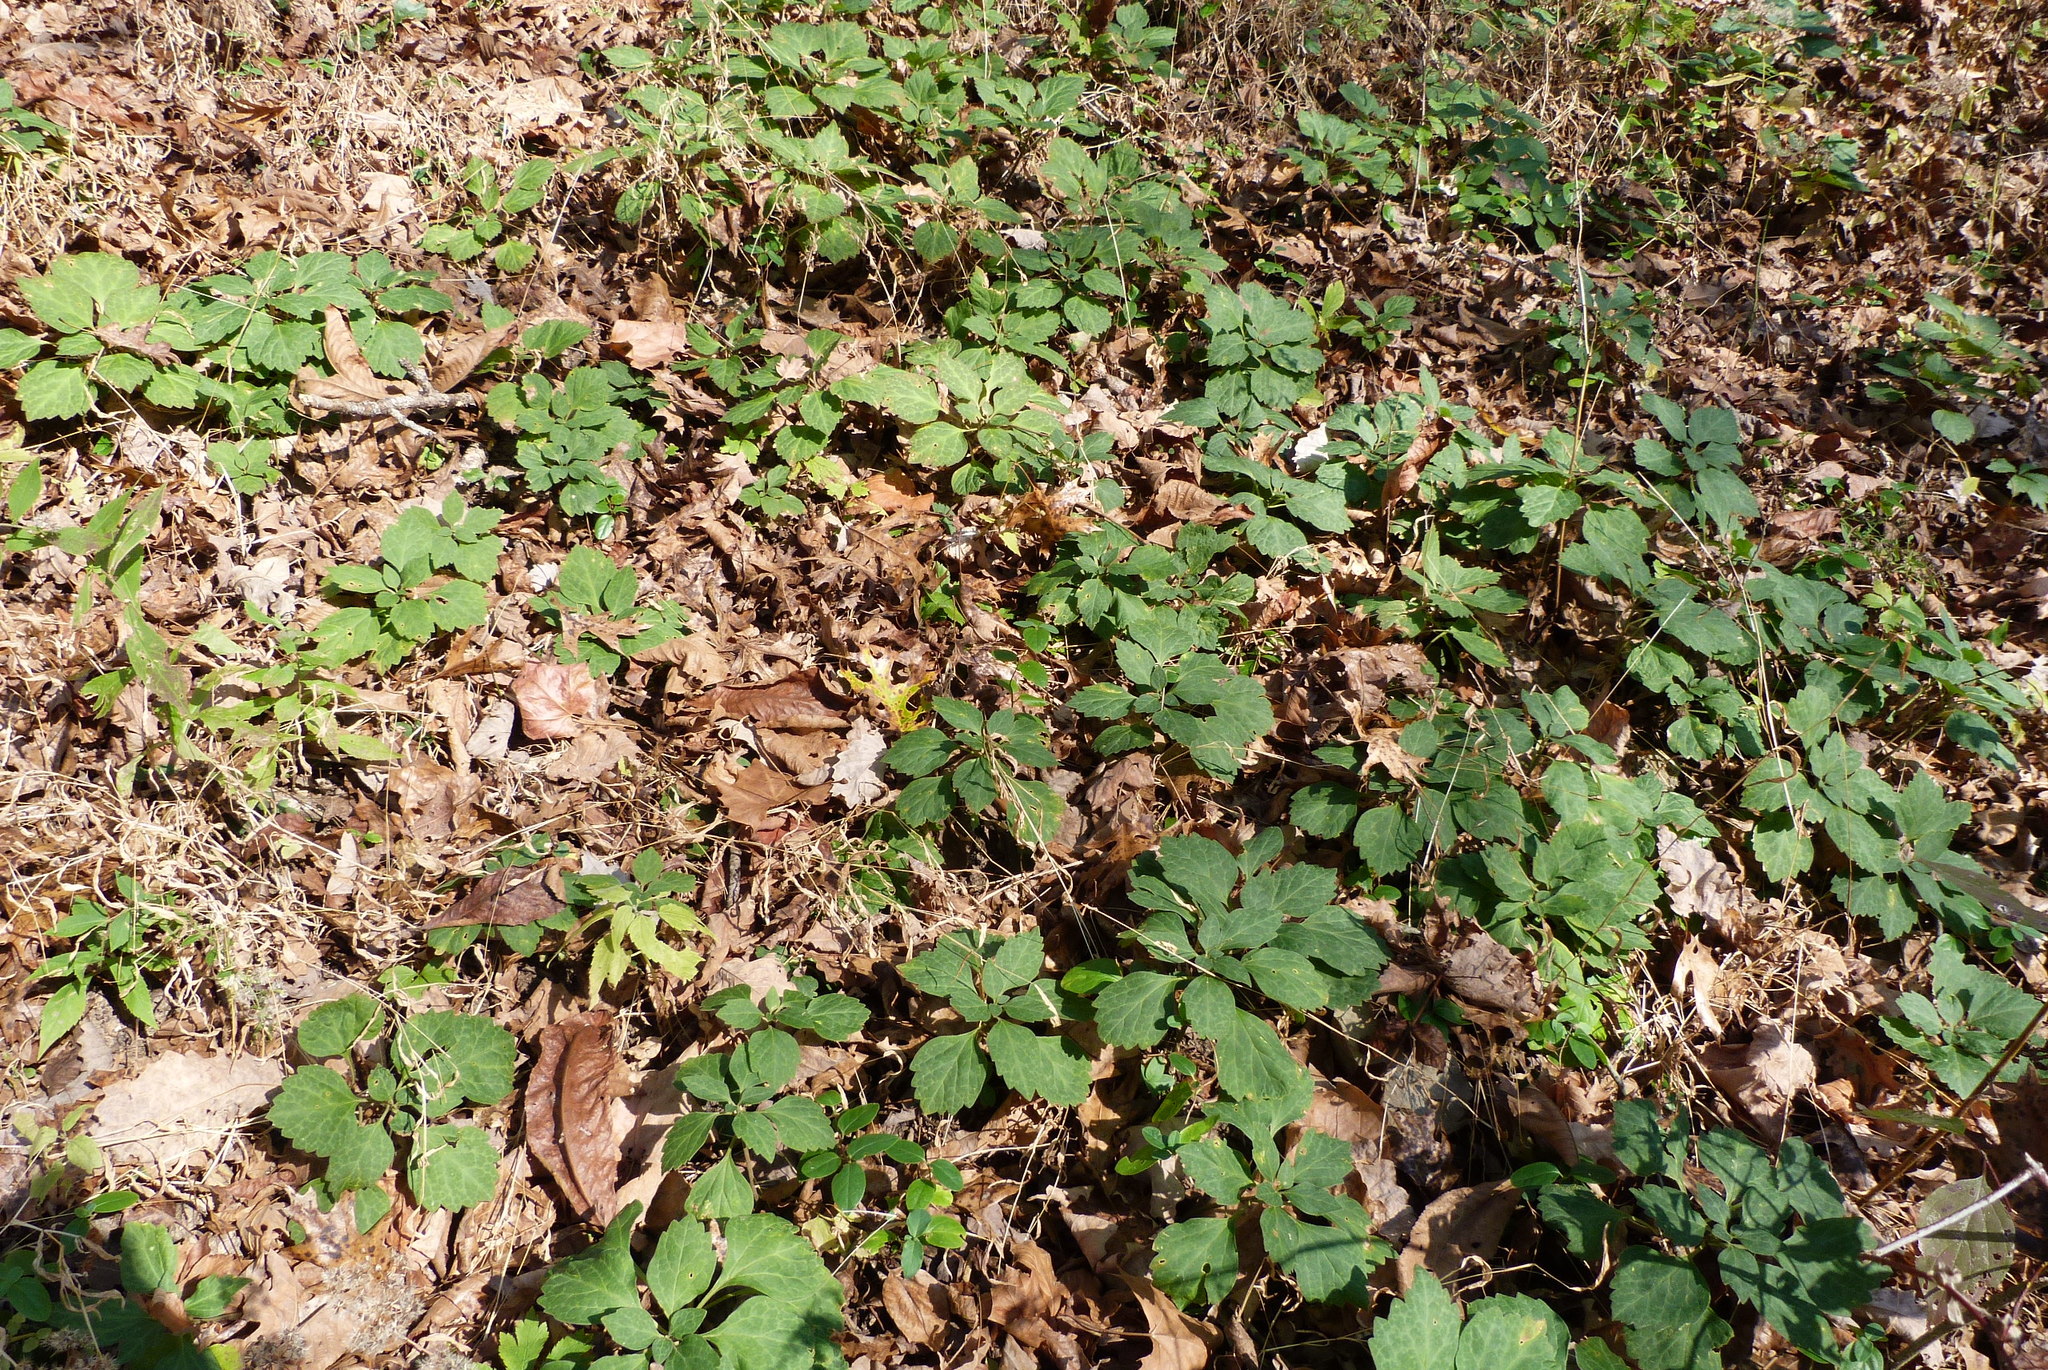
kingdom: Plantae
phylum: Tracheophyta
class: Magnoliopsida
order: Buxales
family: Buxaceae
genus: Pachysandra
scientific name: Pachysandra procumbens
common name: Mountain-spurge
